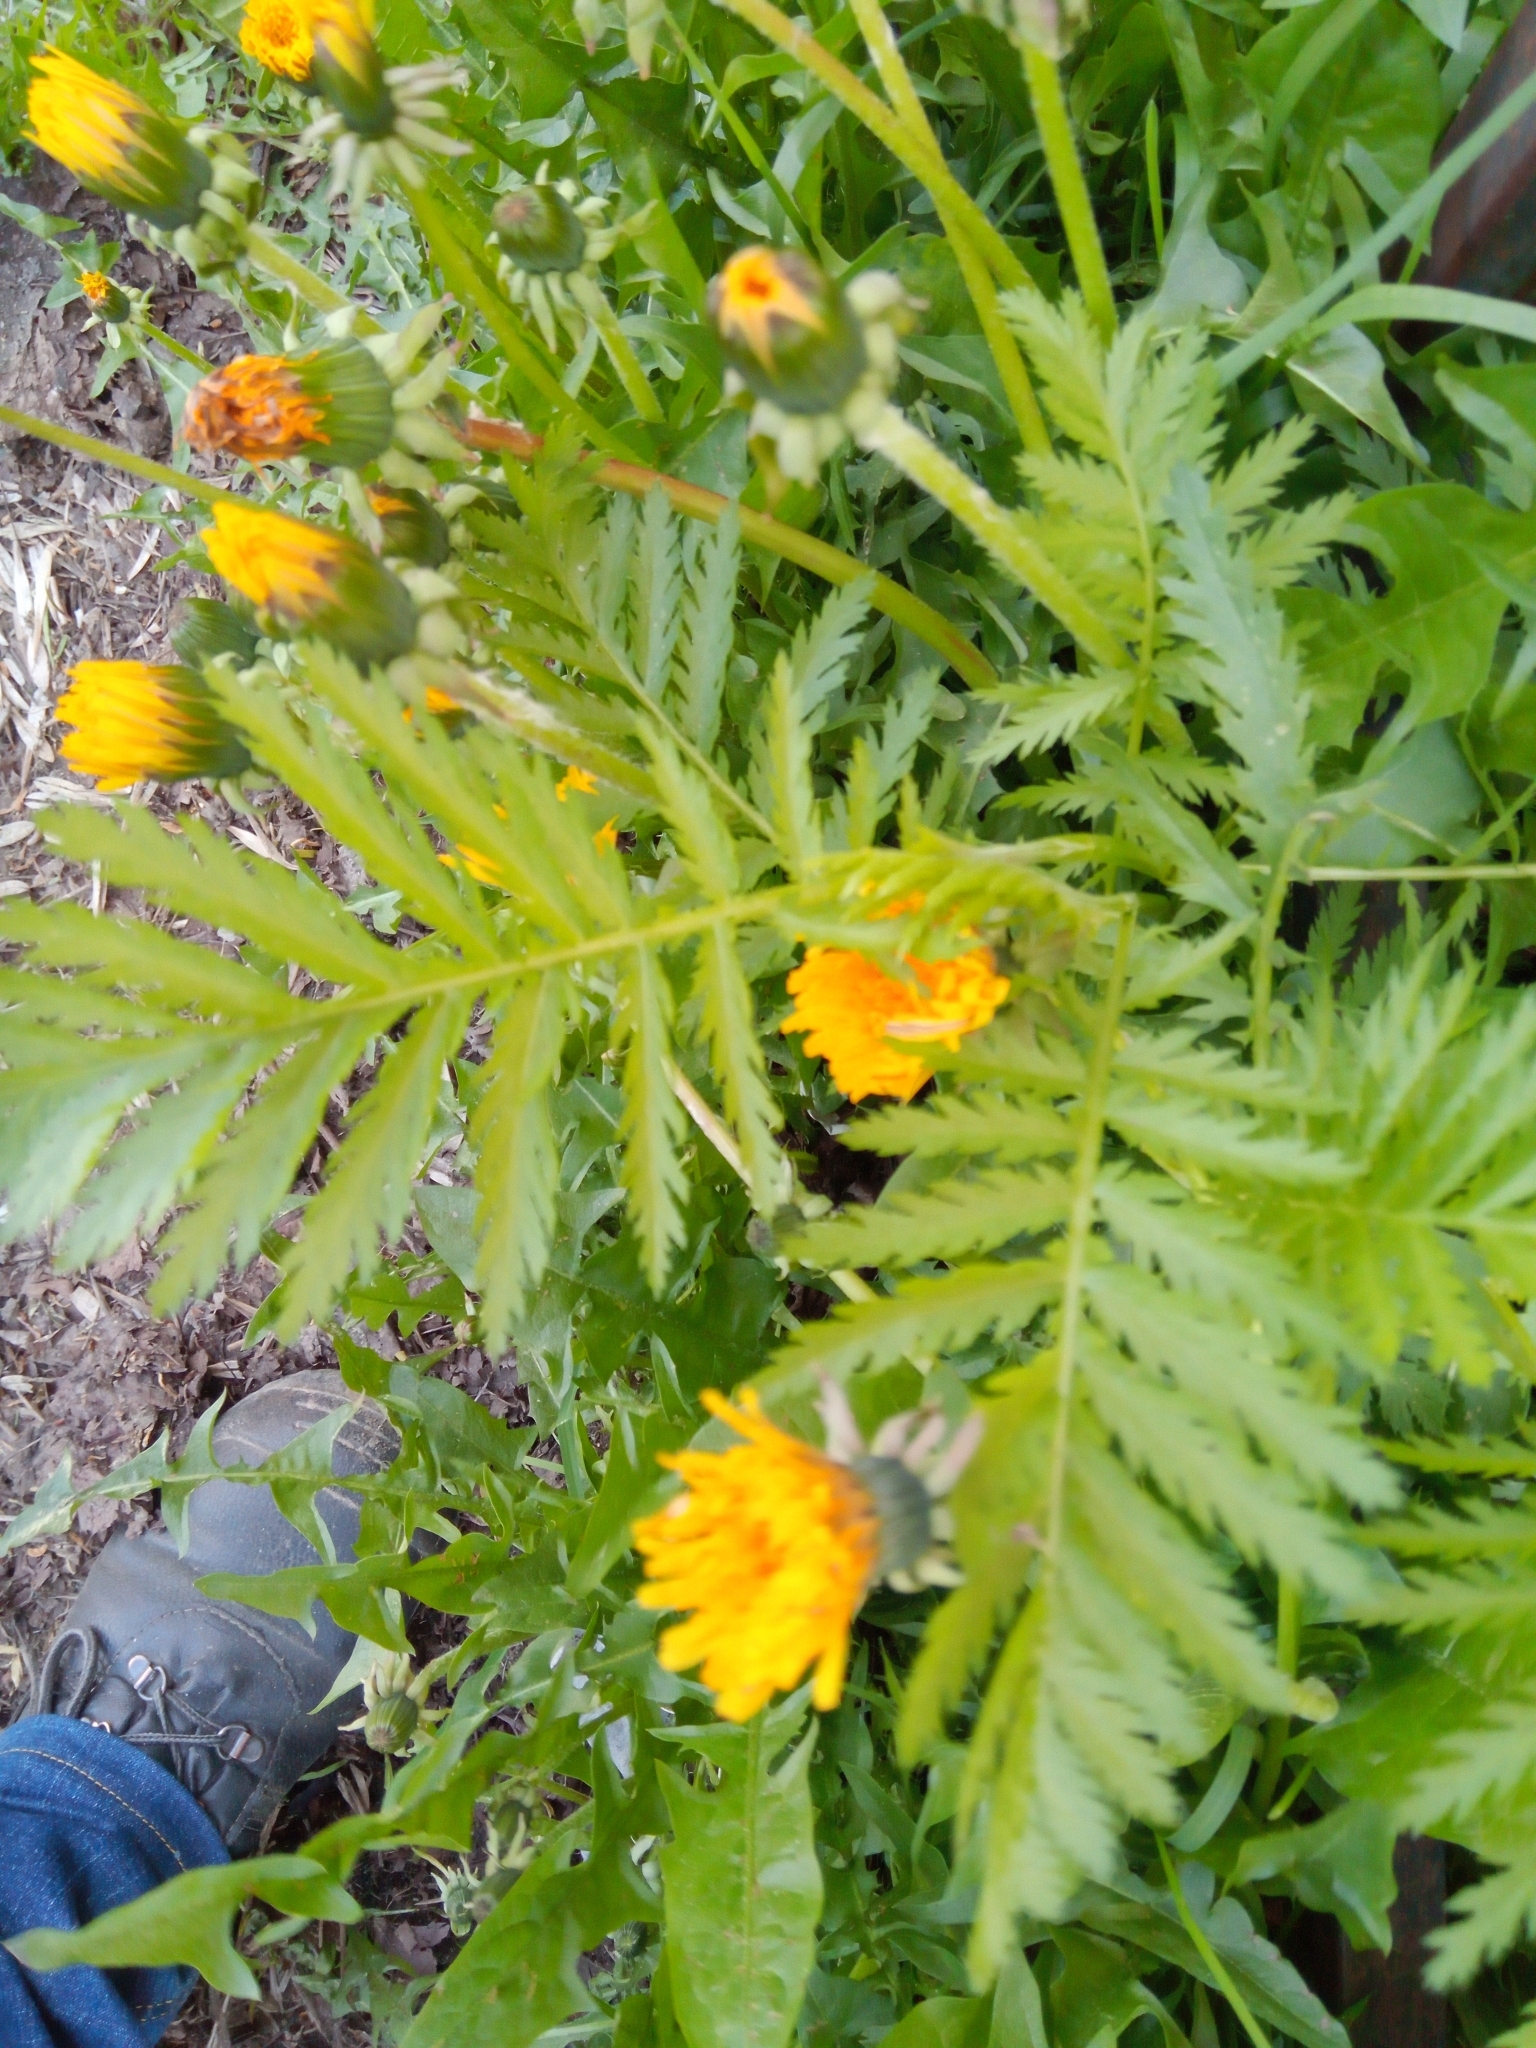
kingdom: Plantae
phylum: Tracheophyta
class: Magnoliopsida
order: Asterales
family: Asteraceae
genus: Tanacetum
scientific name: Tanacetum vulgare
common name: Common tansy
